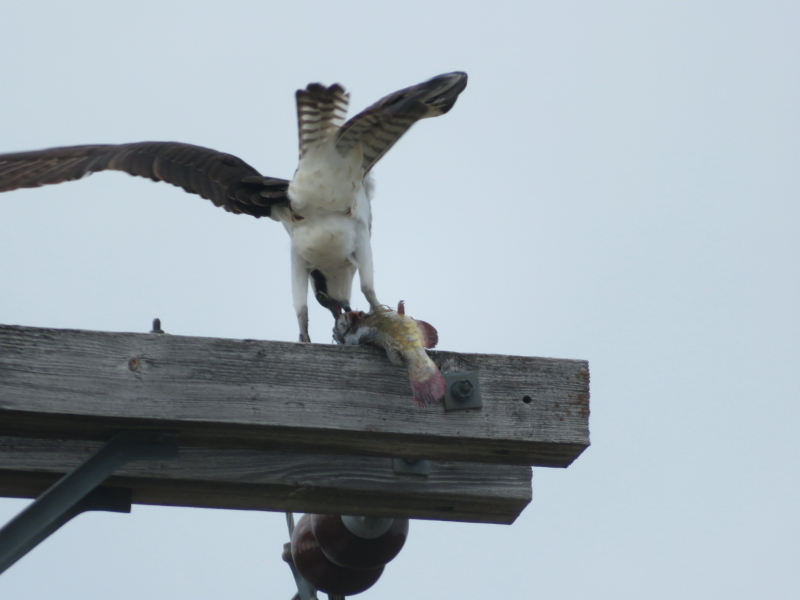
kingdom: Animalia
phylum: Chordata
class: Aves
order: Accipitriformes
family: Pandionidae
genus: Pandion
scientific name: Pandion haliaetus
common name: Osprey
